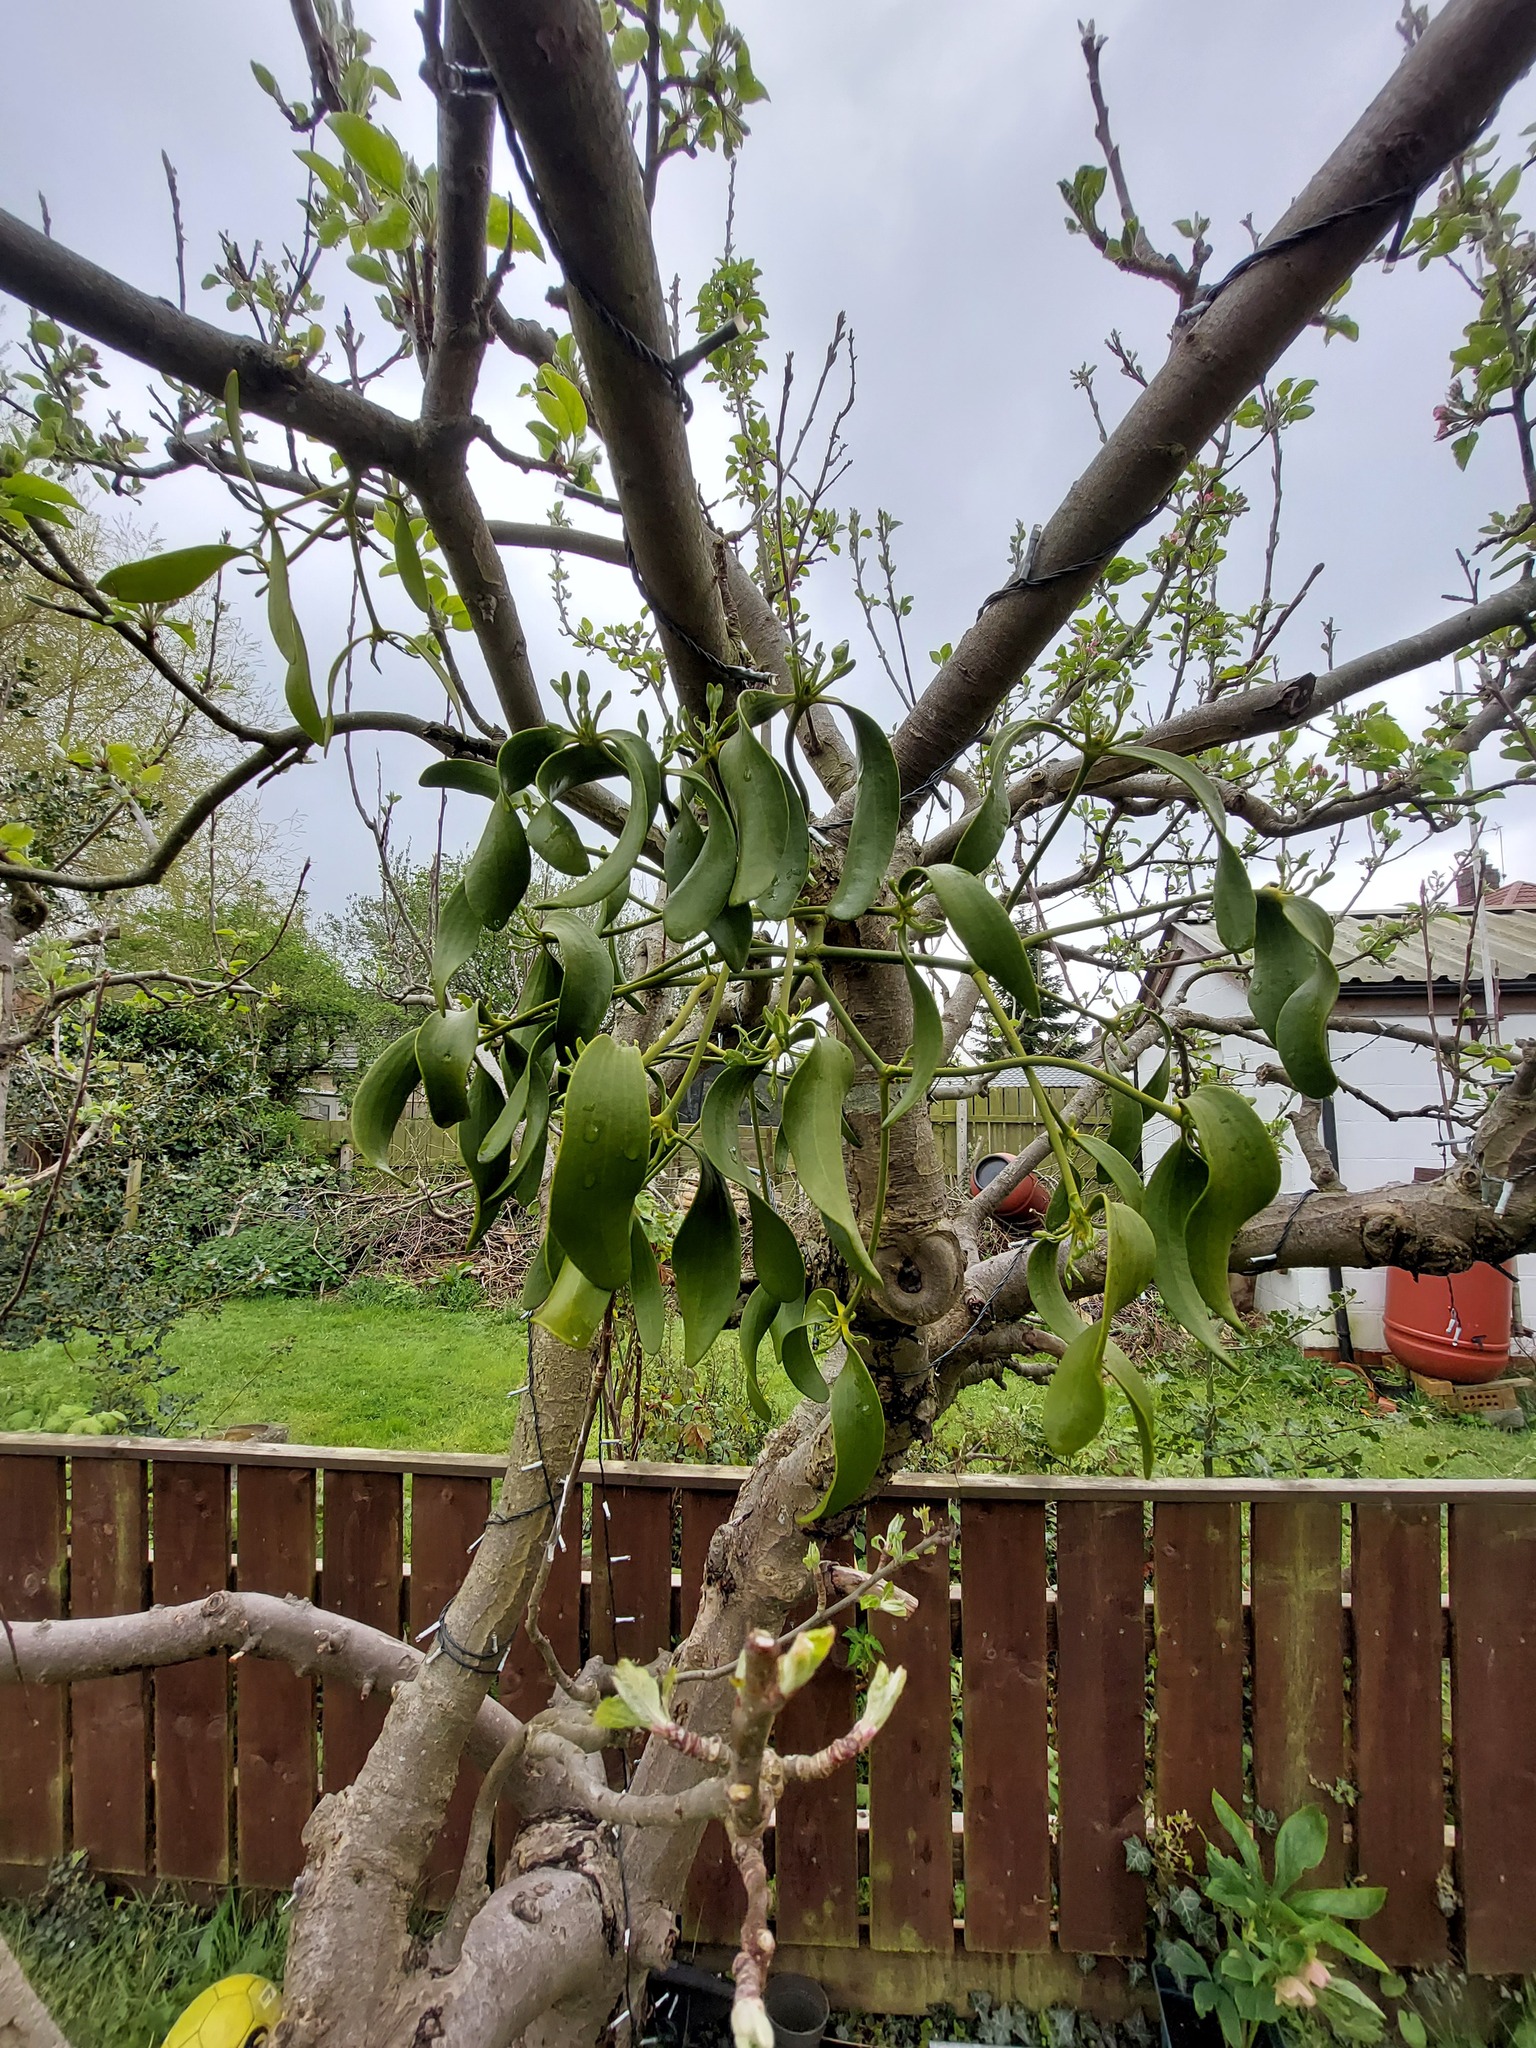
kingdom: Plantae
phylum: Tracheophyta
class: Magnoliopsida
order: Santalales
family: Viscaceae
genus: Viscum
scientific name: Viscum album
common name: Mistletoe
